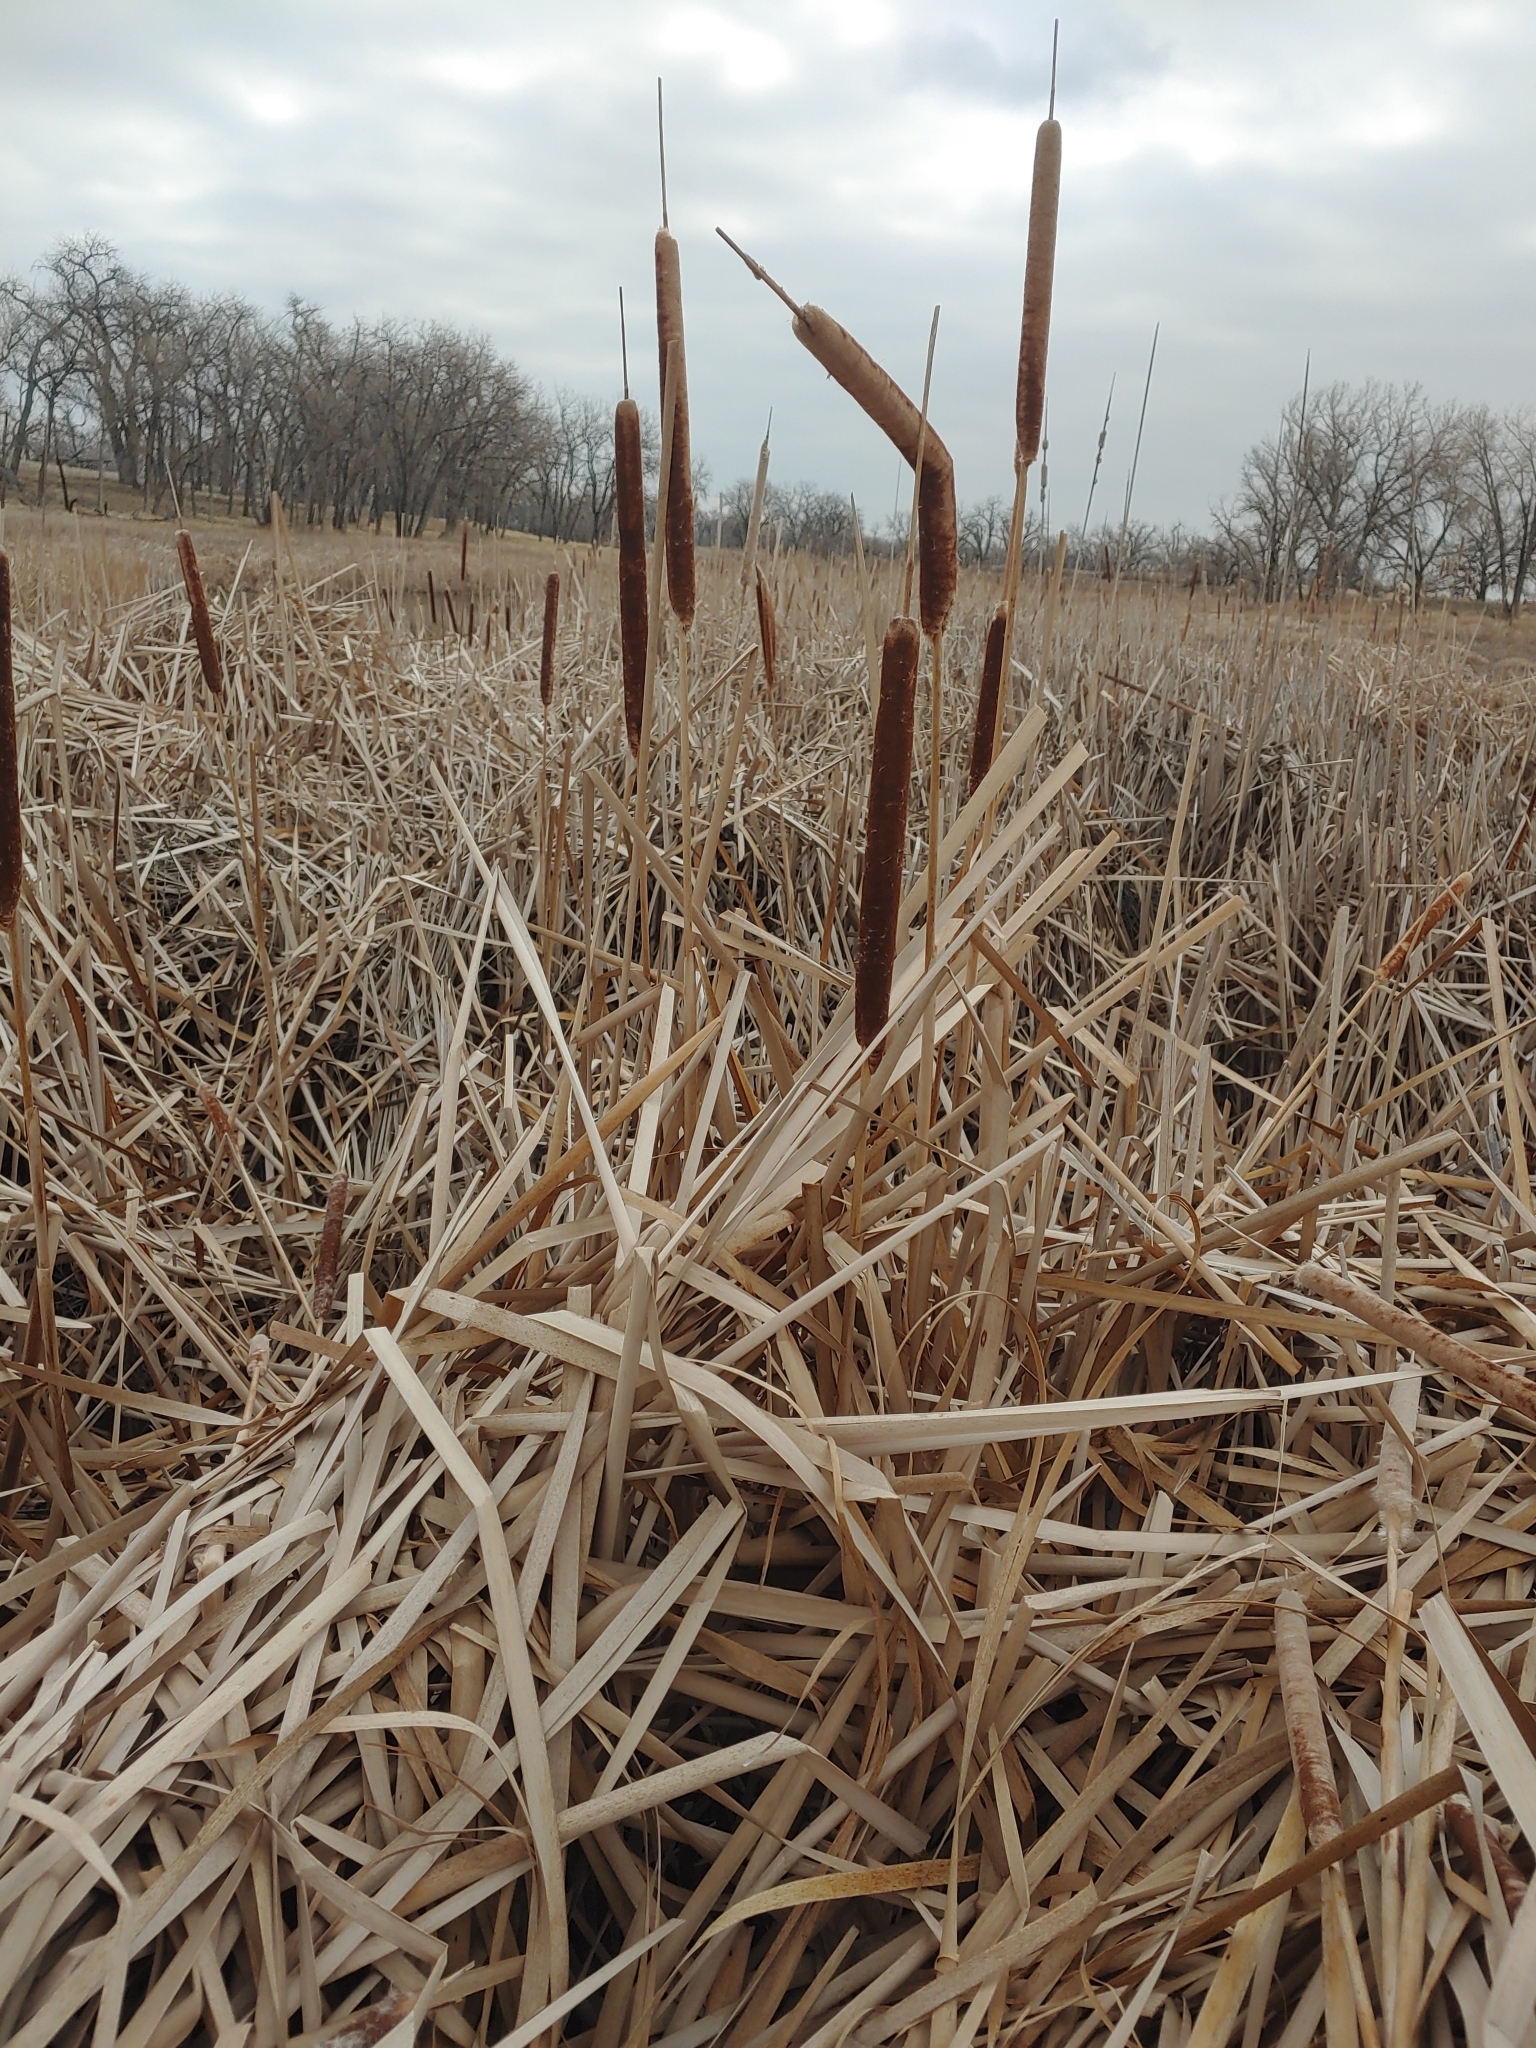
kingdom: Plantae
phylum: Tracheophyta
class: Liliopsida
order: Poales
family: Typhaceae
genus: Typha
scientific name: Typha glauca
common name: Blue cattail
